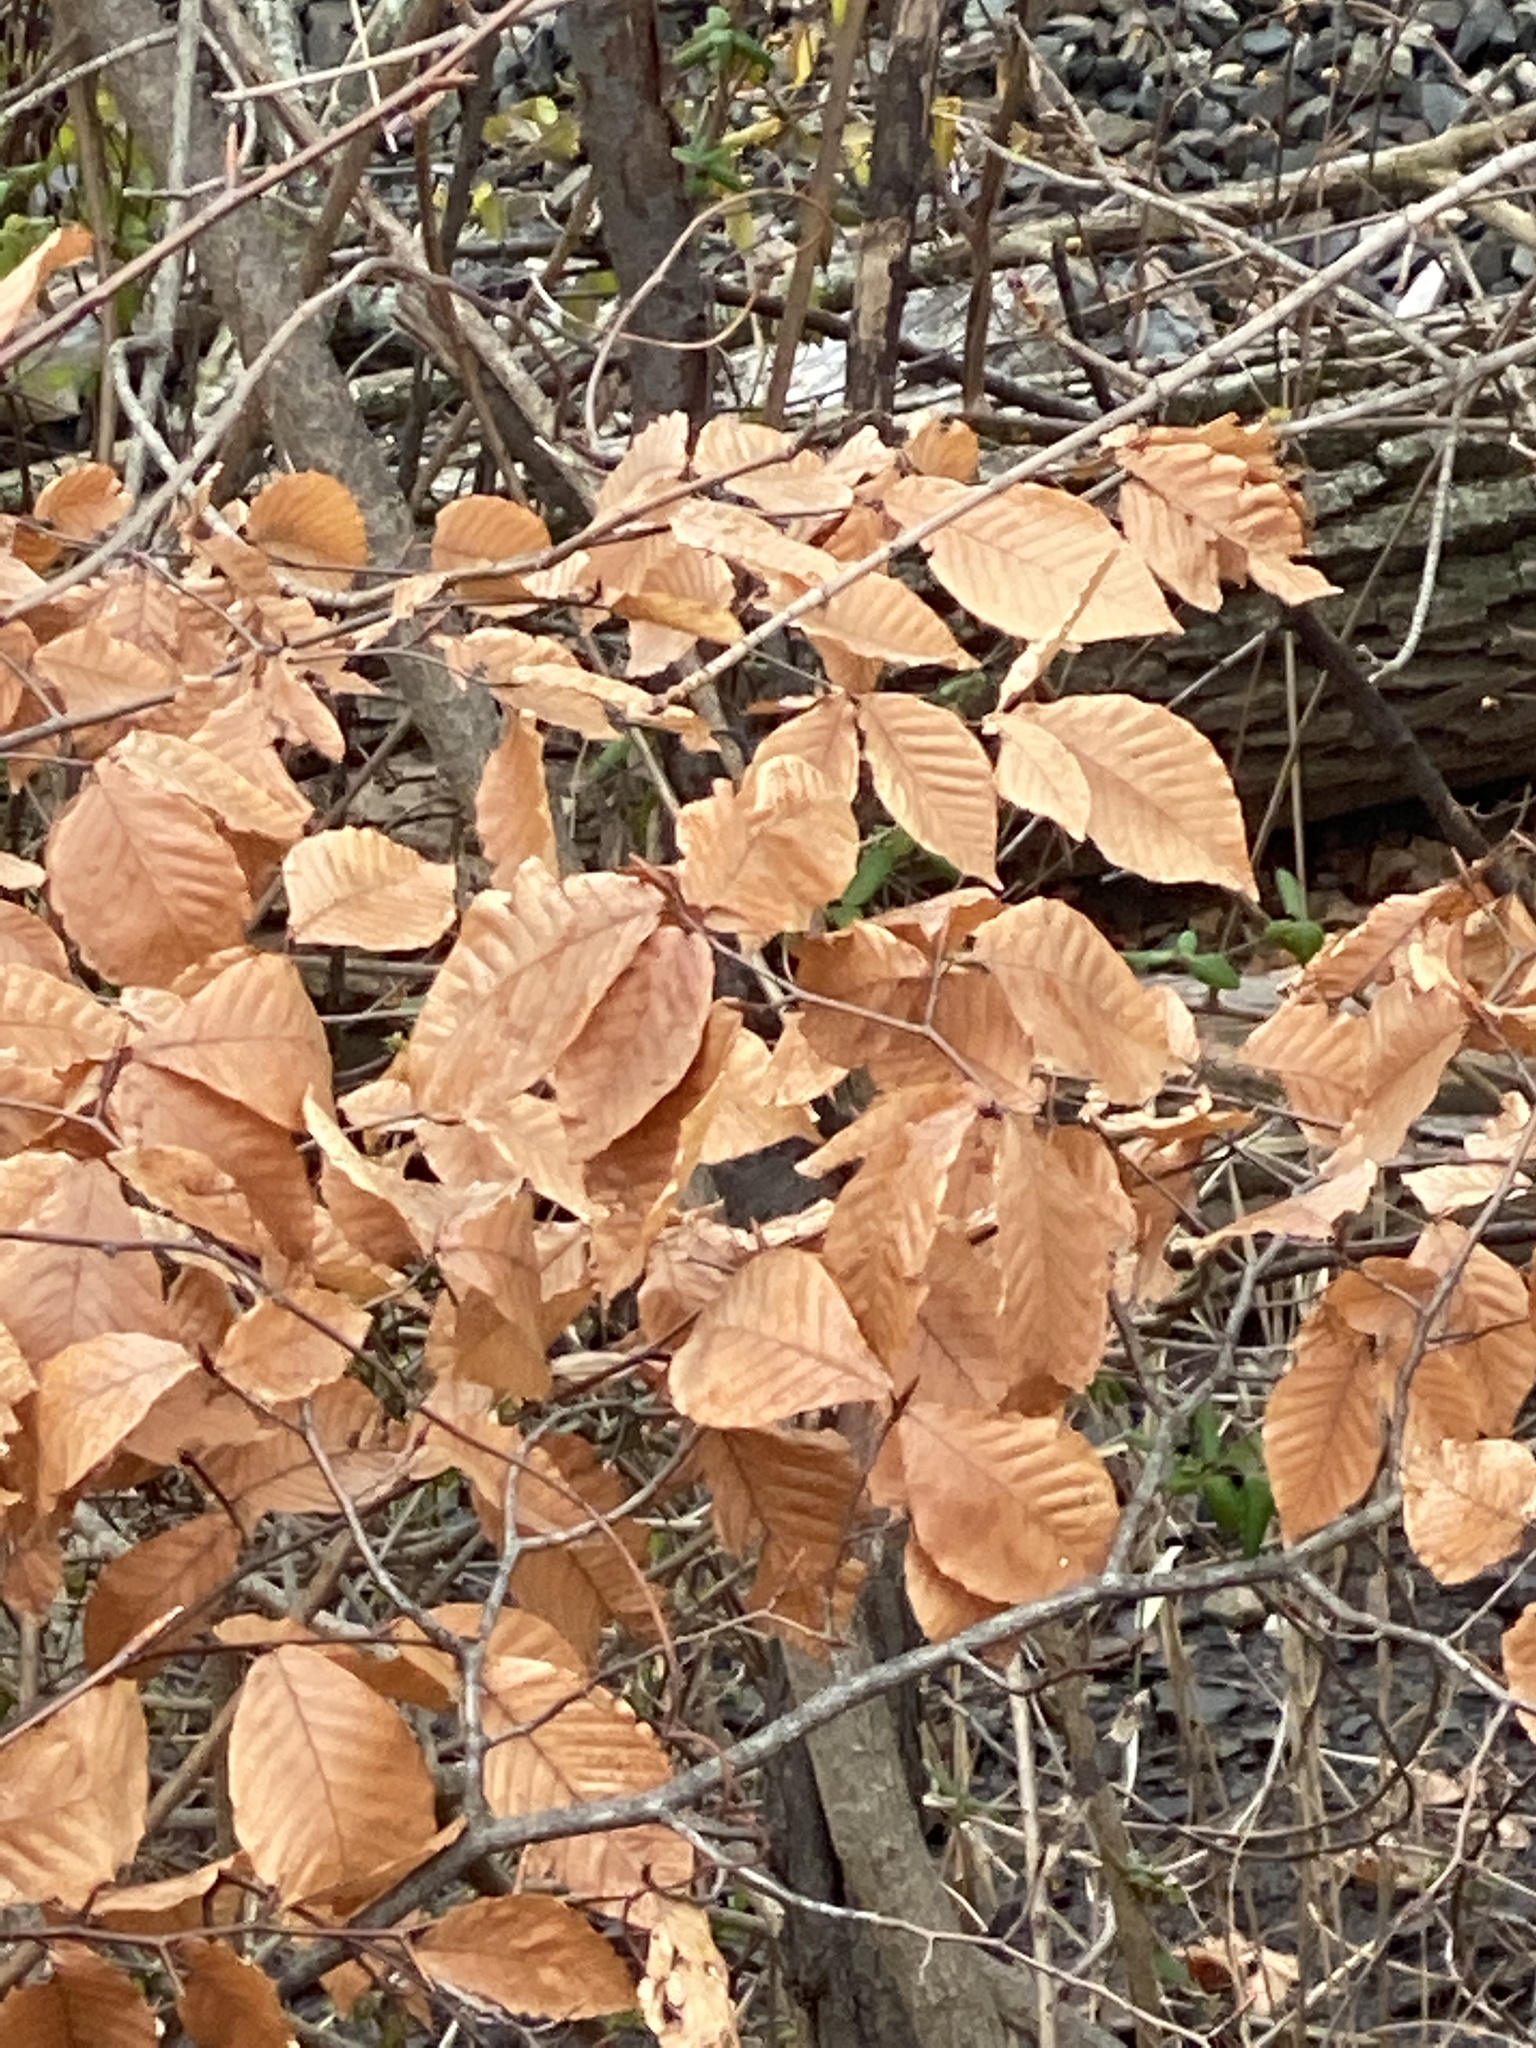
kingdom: Plantae
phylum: Tracheophyta
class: Magnoliopsida
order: Fagales
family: Fagaceae
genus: Fagus
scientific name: Fagus grandifolia
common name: American beech
